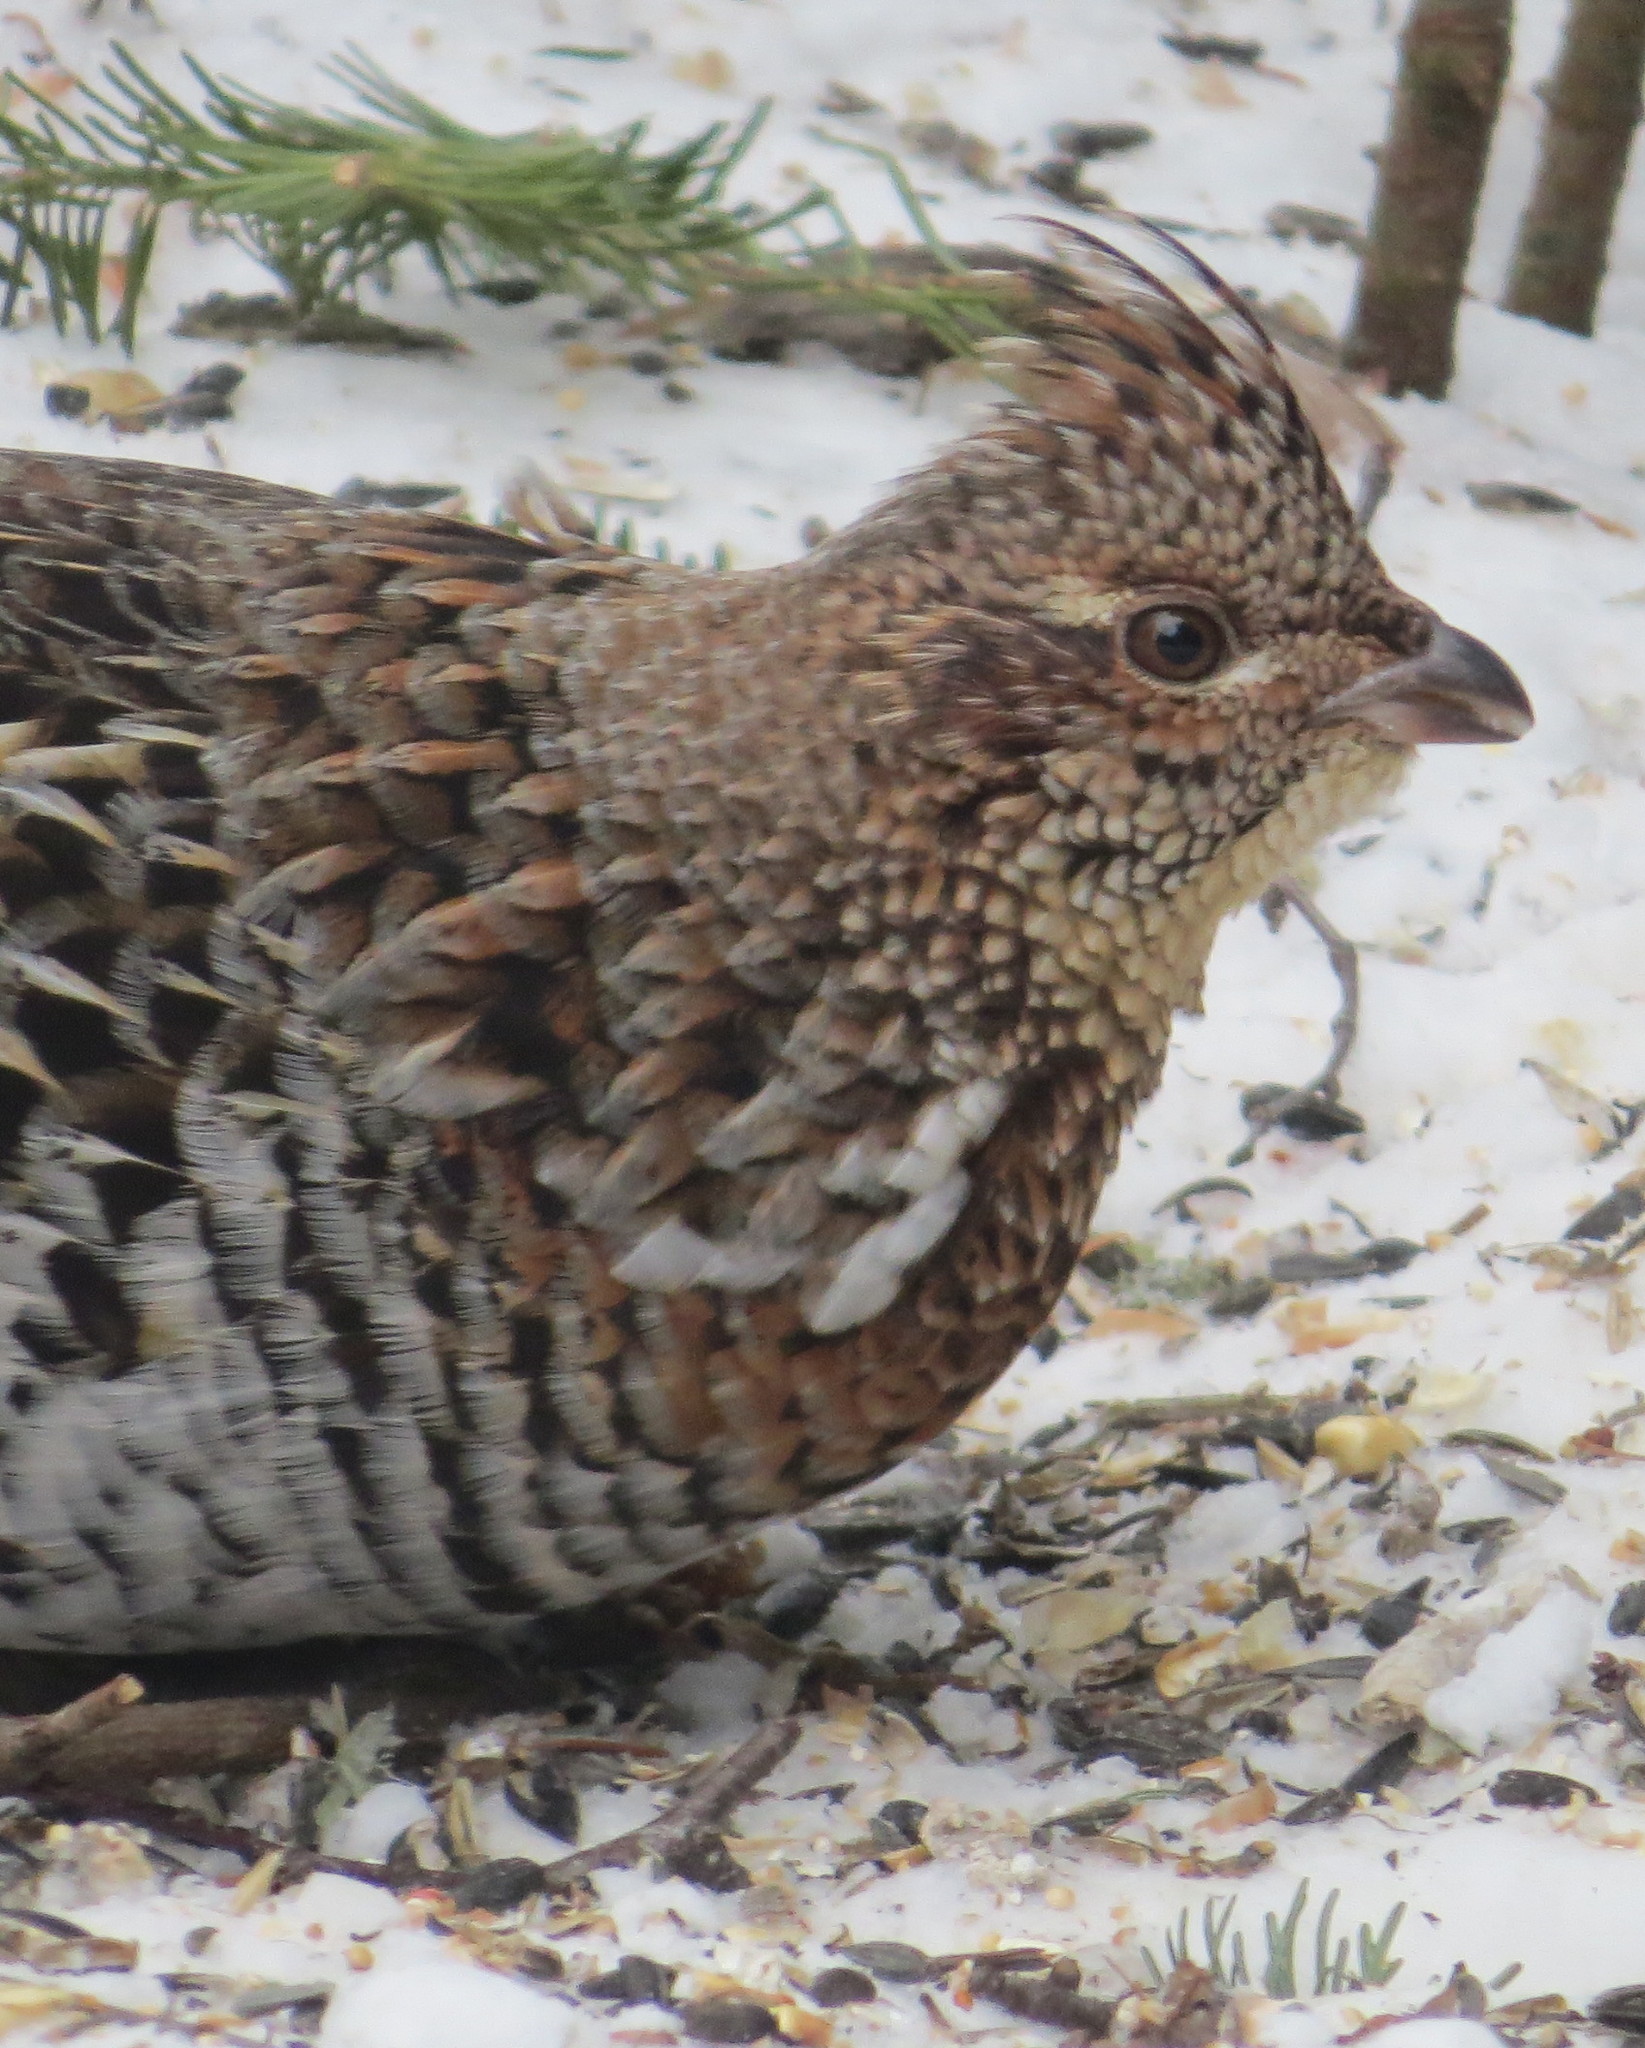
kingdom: Animalia
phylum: Chordata
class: Aves
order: Galliformes
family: Phasianidae
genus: Bonasa
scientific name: Bonasa umbellus
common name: Ruffed grouse
